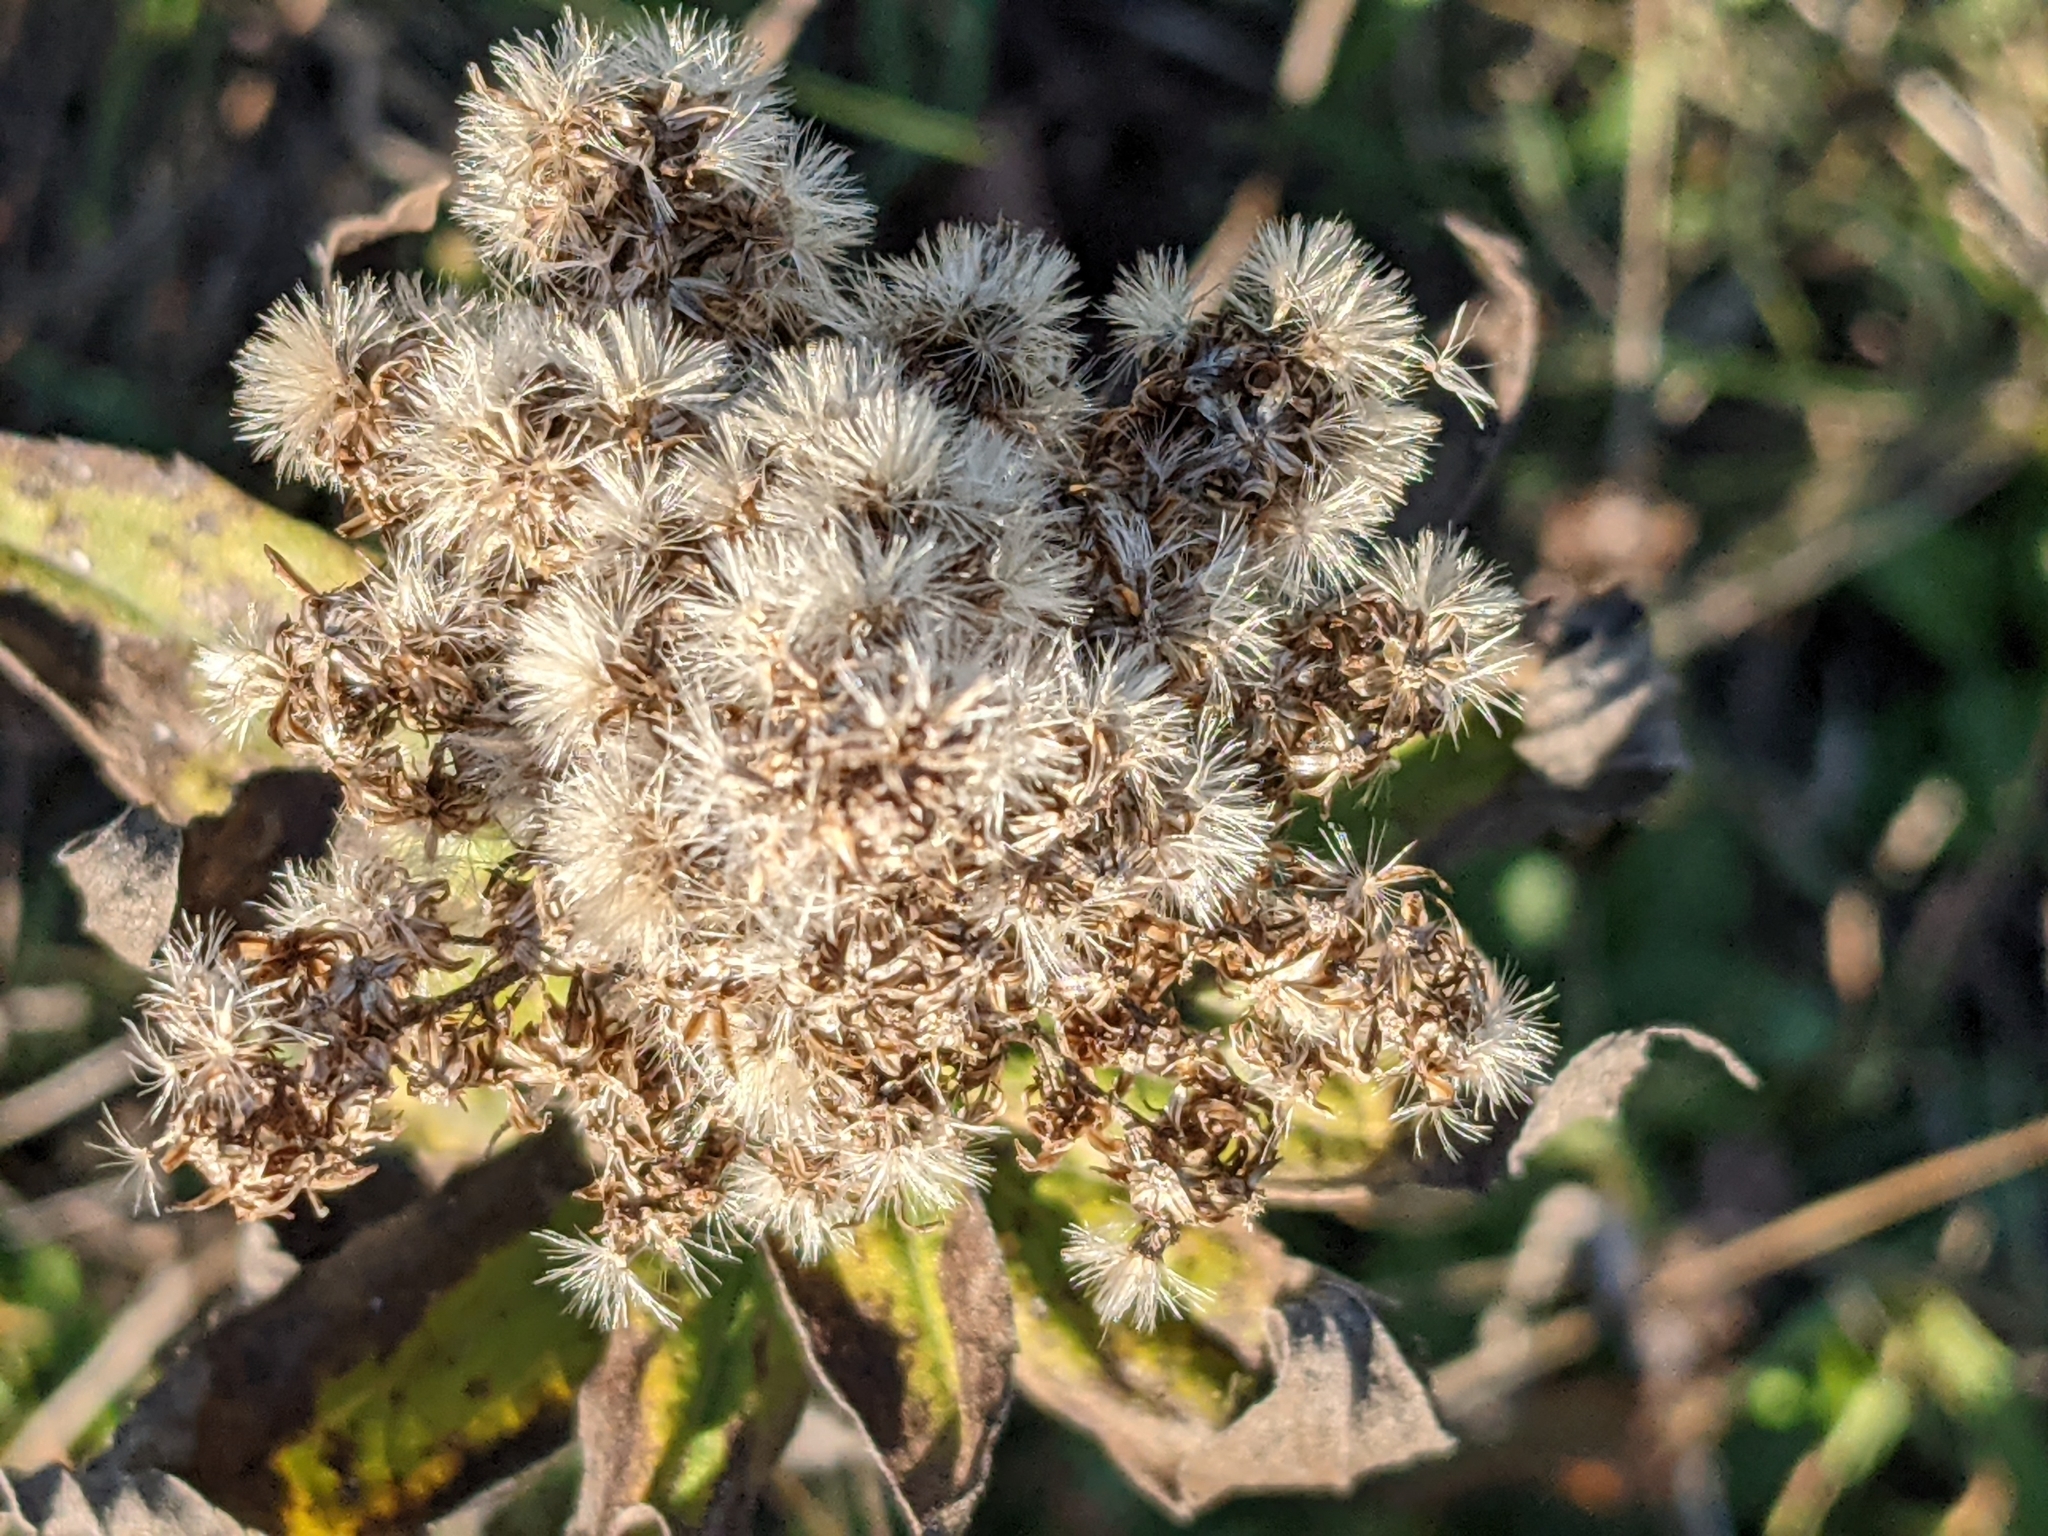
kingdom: Plantae
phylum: Tracheophyta
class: Magnoliopsida
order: Asterales
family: Asteraceae
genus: Solidago
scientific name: Solidago lepida
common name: Western canada goldenrod
